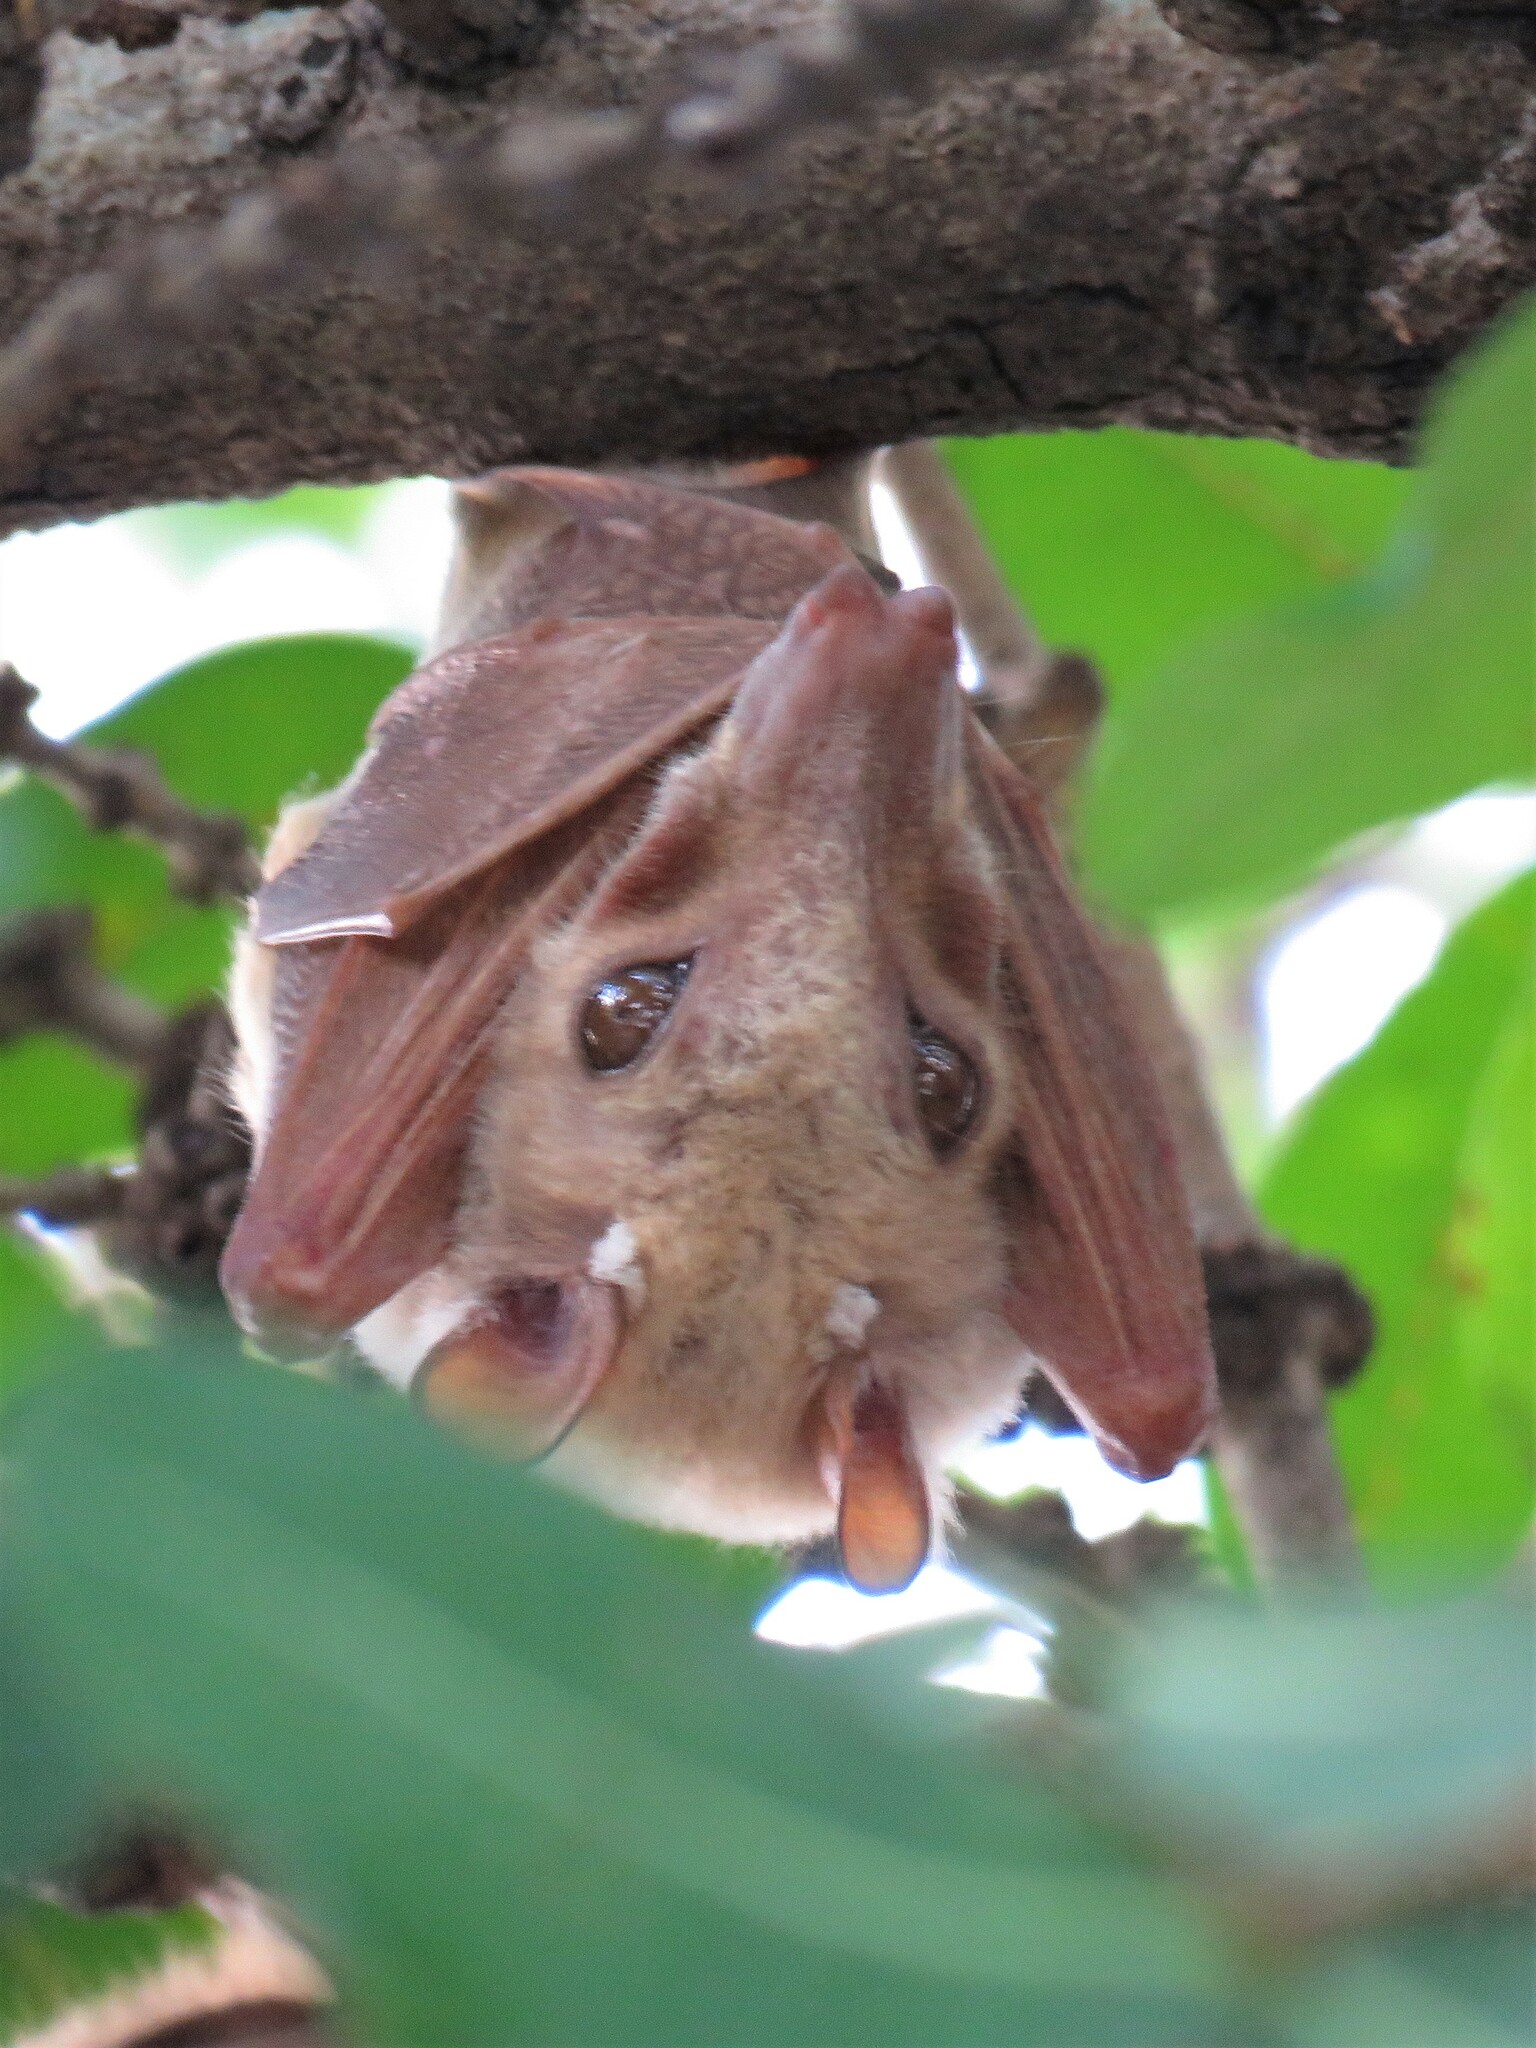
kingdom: Animalia
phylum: Chordata
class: Mammalia
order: Chiroptera
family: Pteropodidae
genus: Epomophorus
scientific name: Epomophorus crypturus
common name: Smaller epauletted fruit bat
